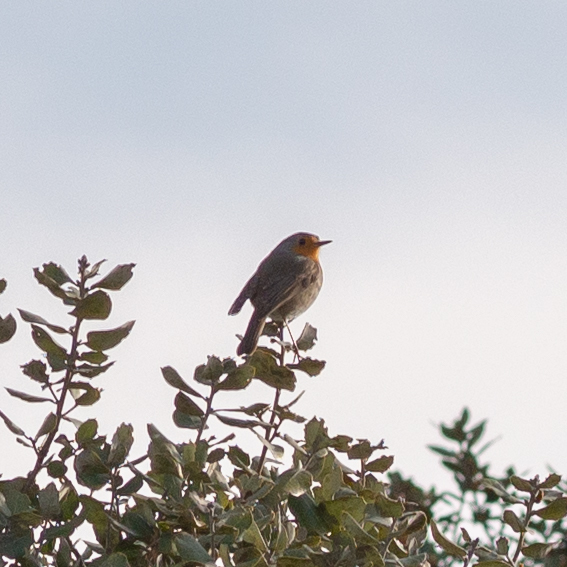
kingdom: Animalia
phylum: Chordata
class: Aves
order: Passeriformes
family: Muscicapidae
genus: Erithacus
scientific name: Erithacus rubecula
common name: European robin
